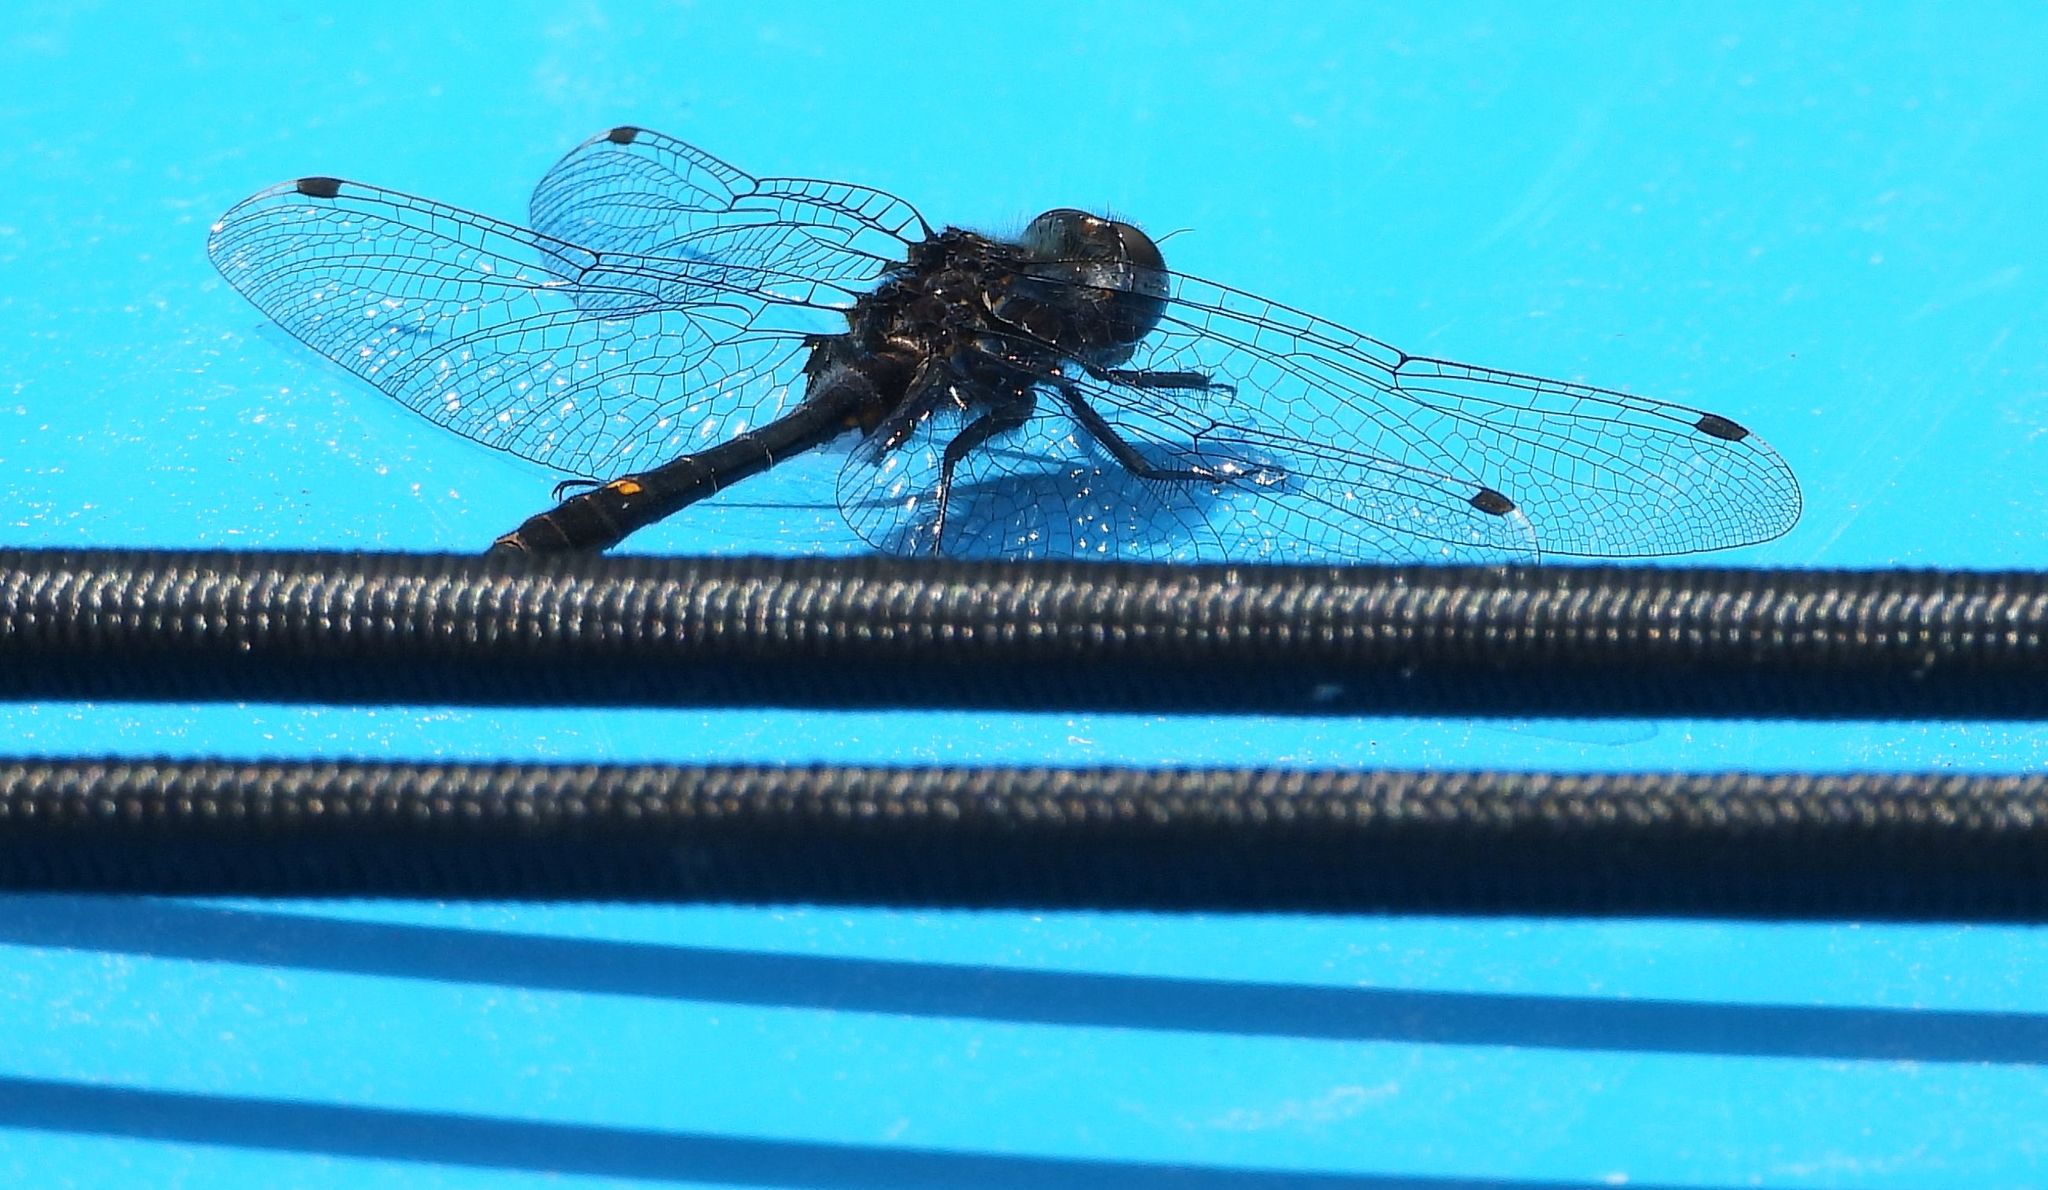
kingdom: Animalia
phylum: Arthropoda
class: Insecta
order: Odonata
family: Libellulidae
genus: Leucorrhinia
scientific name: Leucorrhinia intacta
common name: Dot-tailed whiteface
